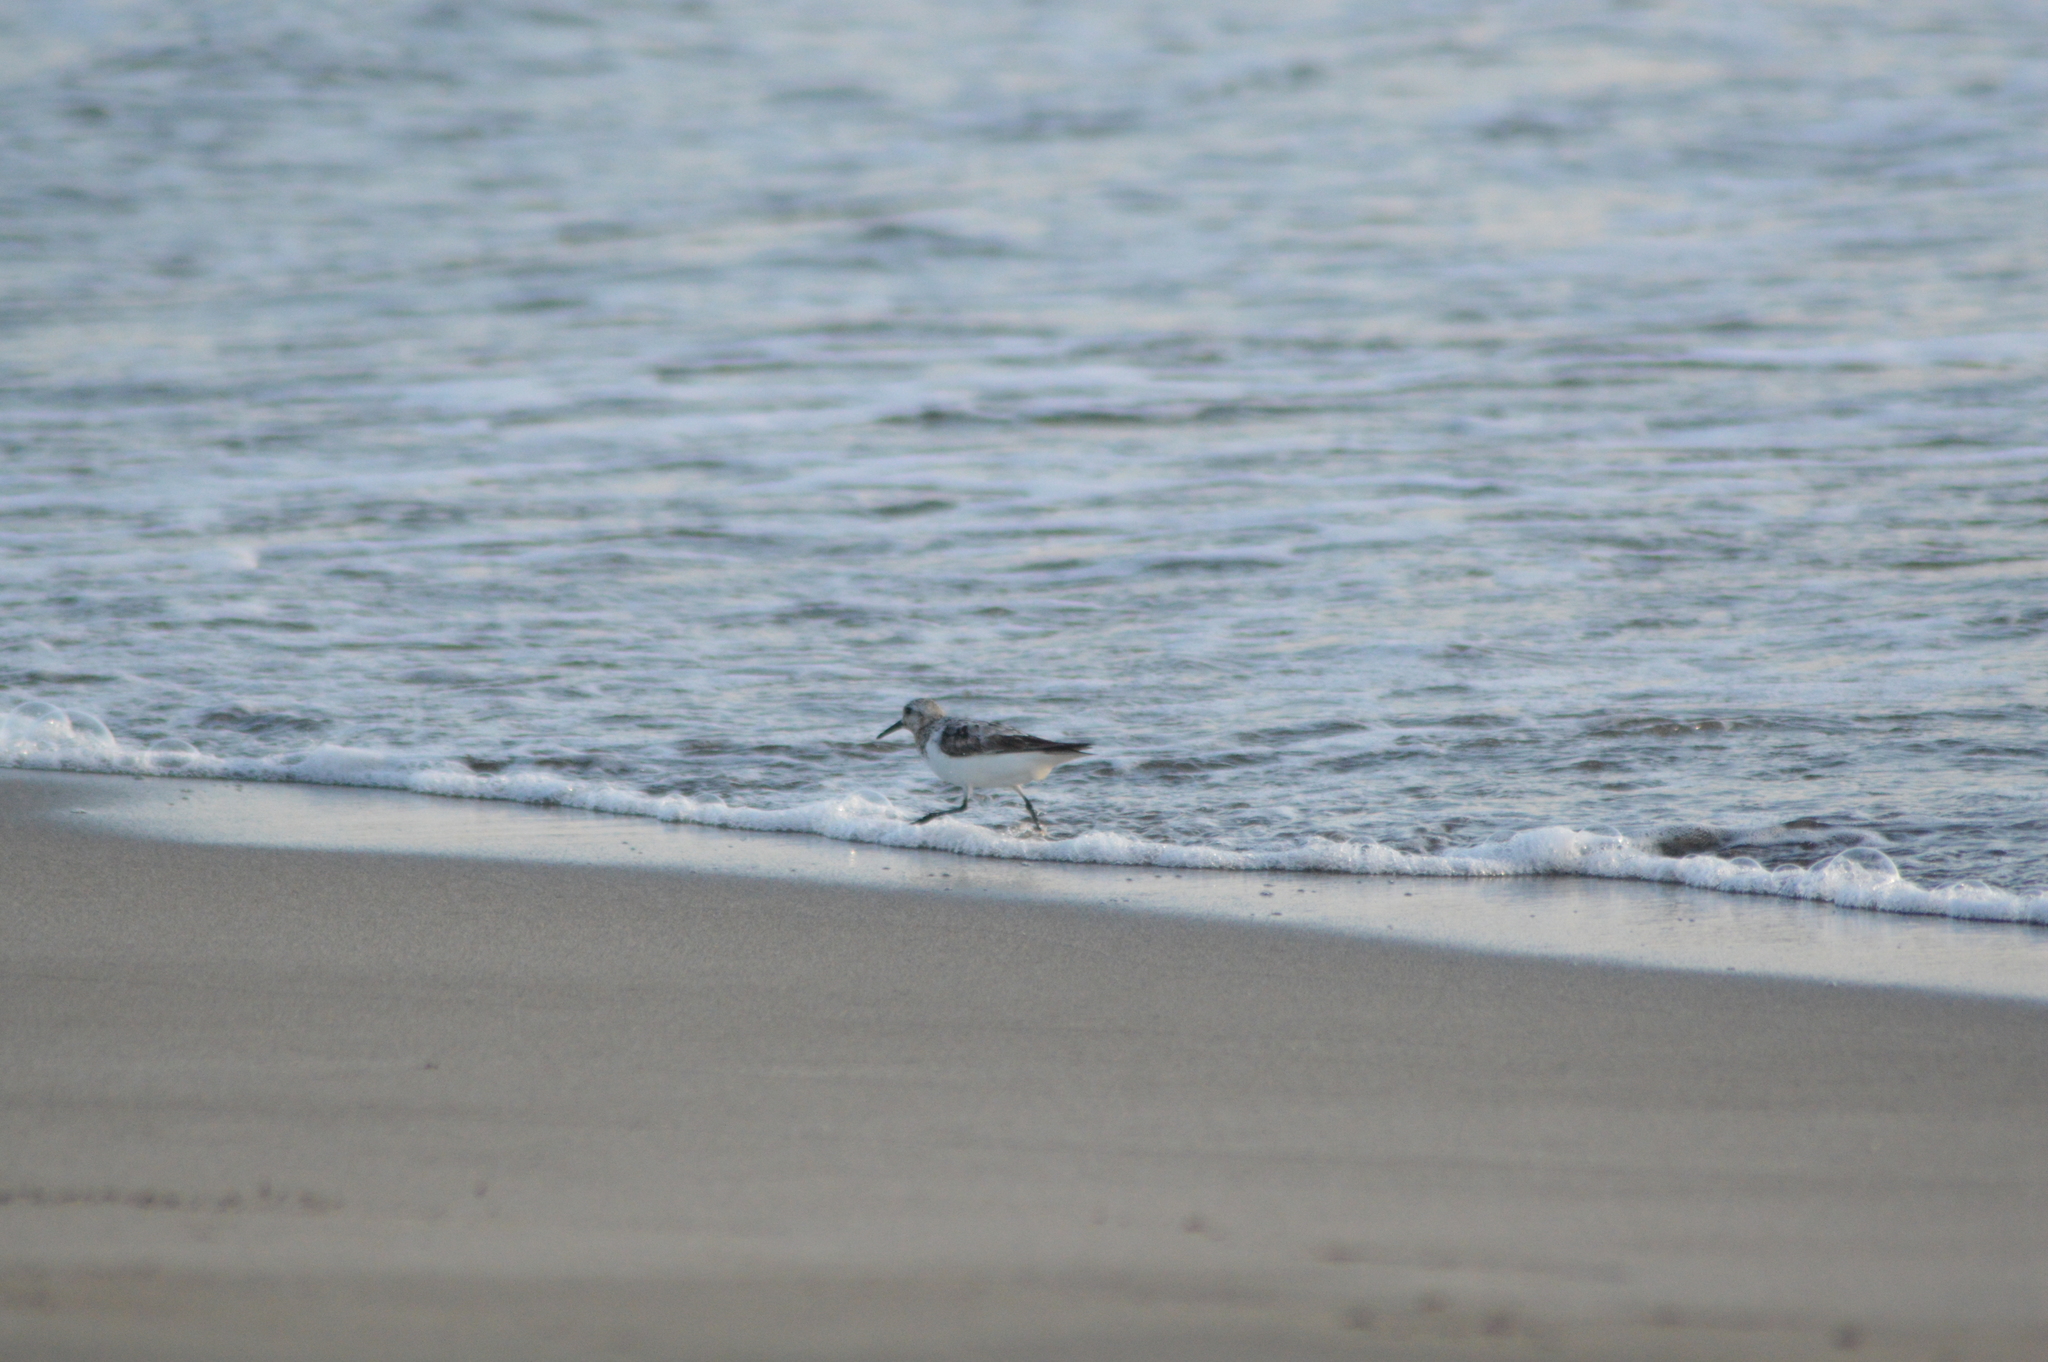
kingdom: Animalia
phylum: Chordata
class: Aves
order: Charadriiformes
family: Scolopacidae
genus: Calidris
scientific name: Calidris alba
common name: Sanderling
